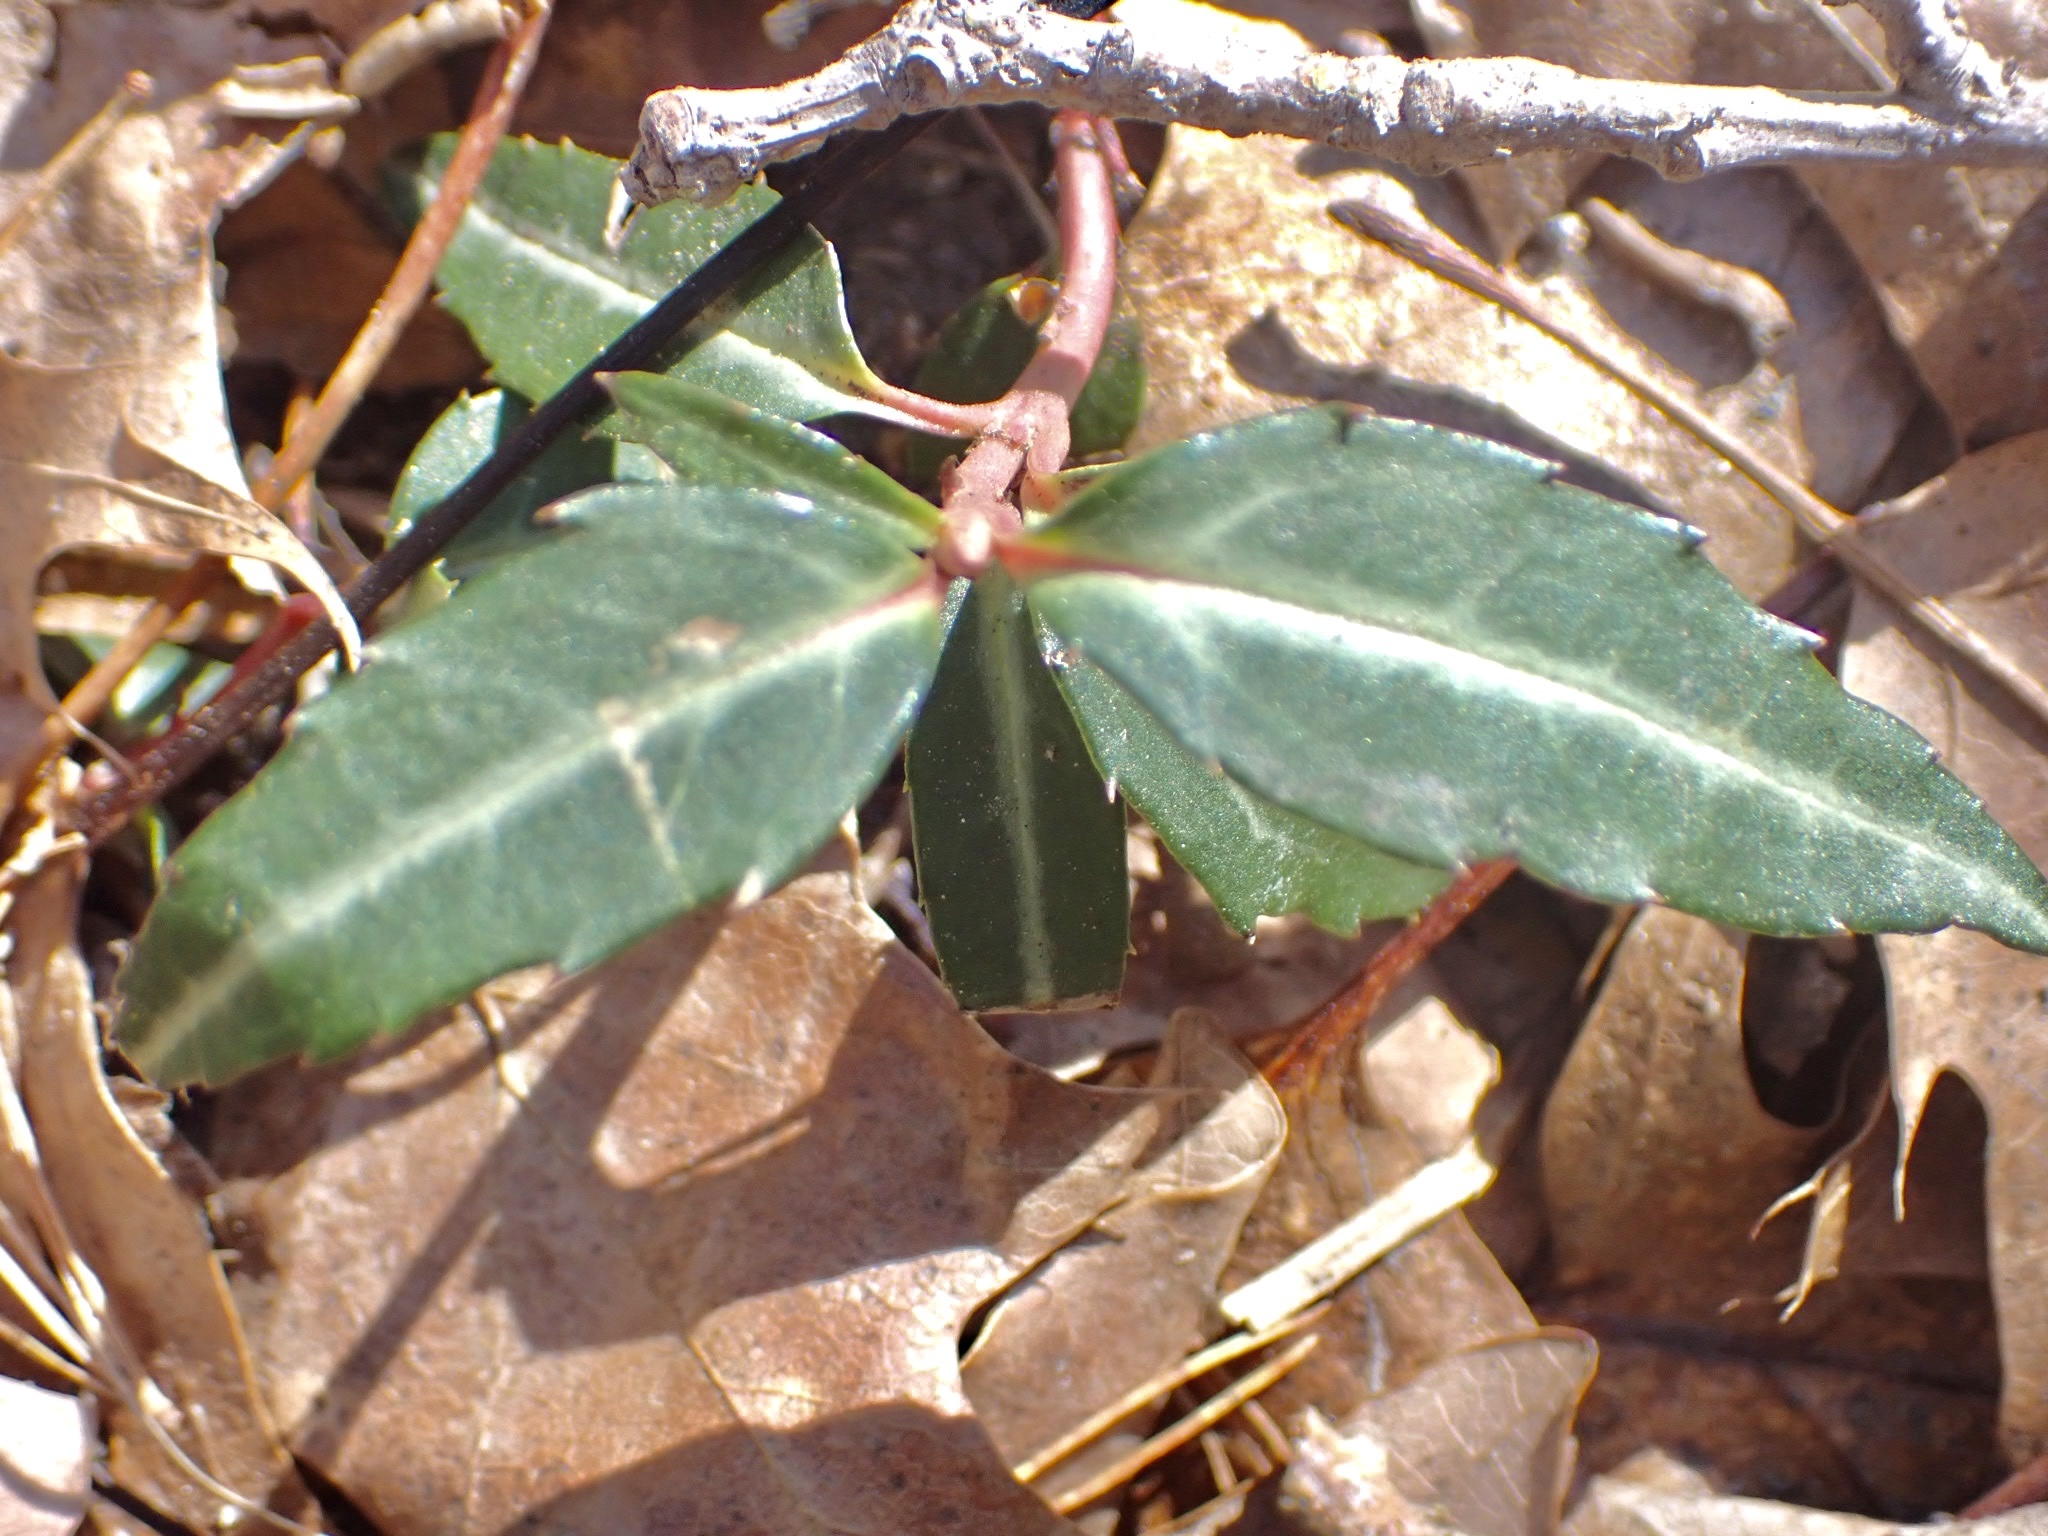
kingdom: Plantae
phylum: Tracheophyta
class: Magnoliopsida
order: Ericales
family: Ericaceae
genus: Chimaphila
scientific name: Chimaphila maculata
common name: Spotted pipsissewa
